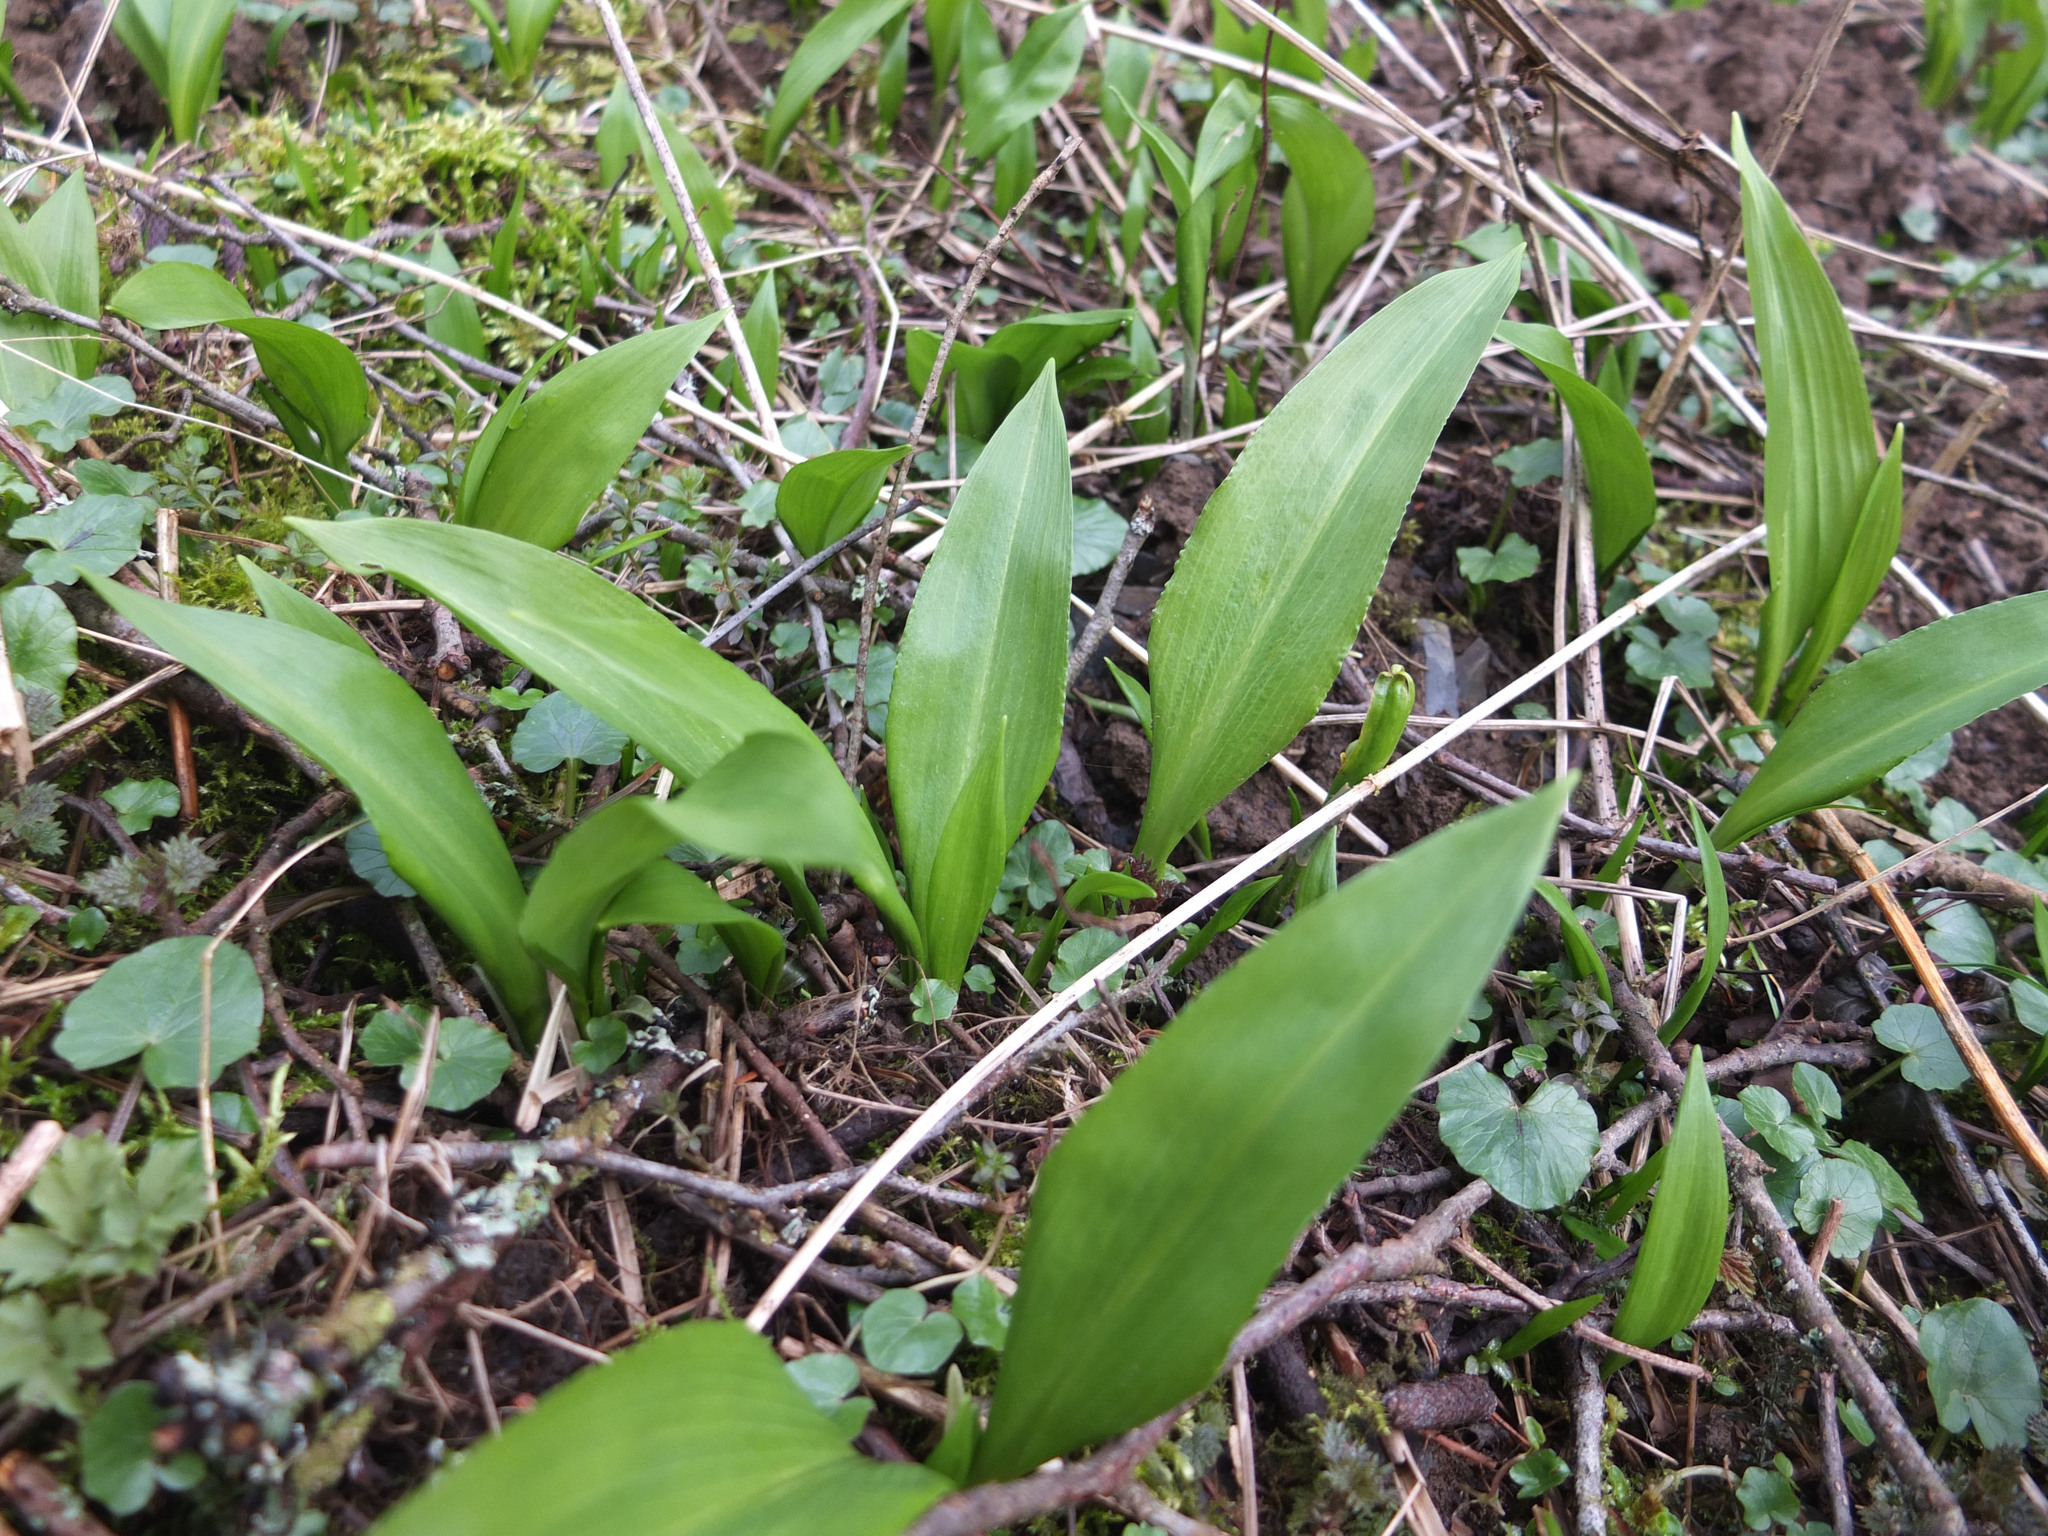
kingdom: Plantae
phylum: Tracheophyta
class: Liliopsida
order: Asparagales
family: Amaryllidaceae
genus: Allium
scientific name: Allium ursinum
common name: Ramsons
